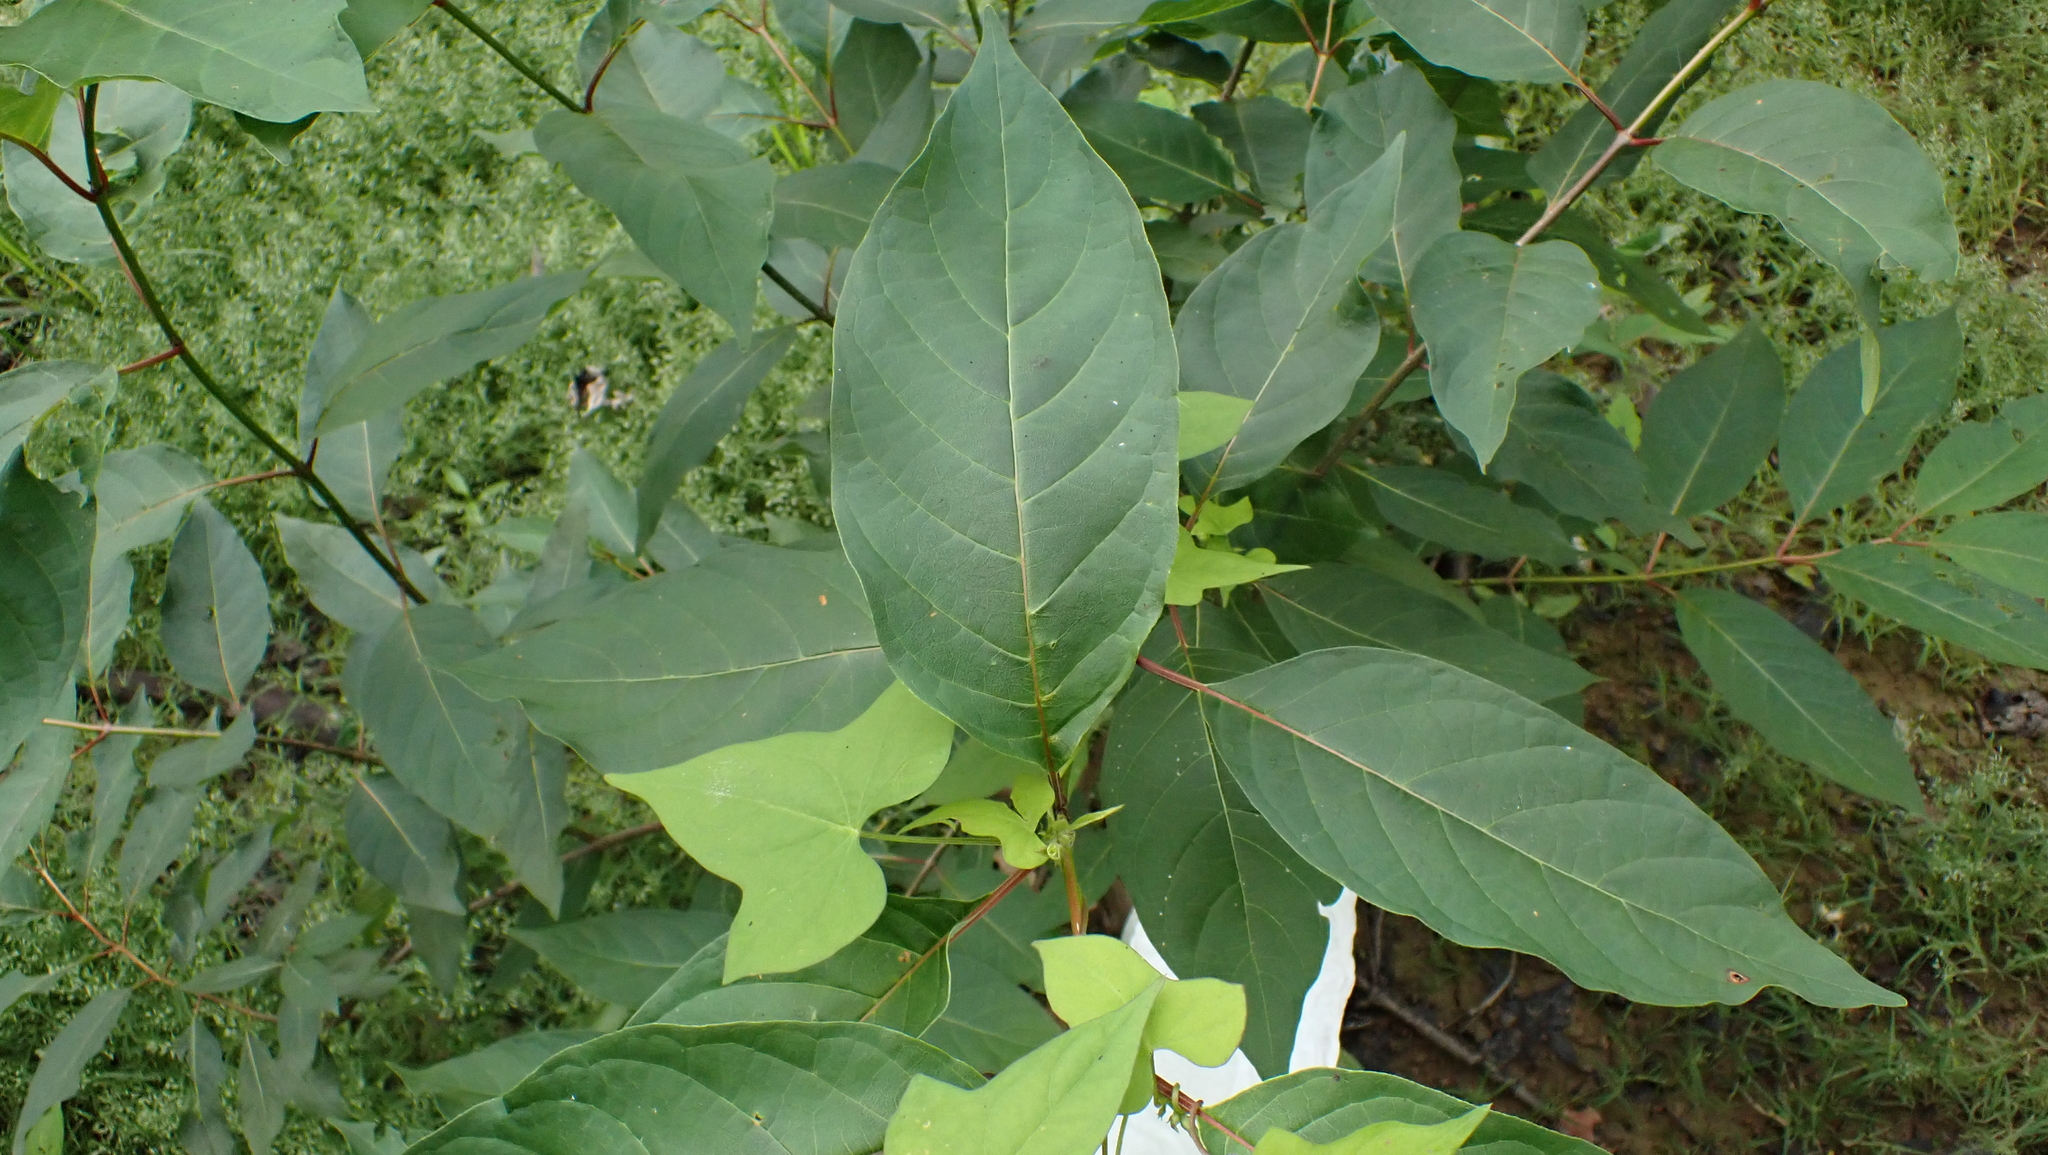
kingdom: Plantae
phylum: Tracheophyta
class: Magnoliopsida
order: Gentianales
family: Rubiaceae
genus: Cephalanthus
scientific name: Cephalanthus occidentalis
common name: Button-willow
